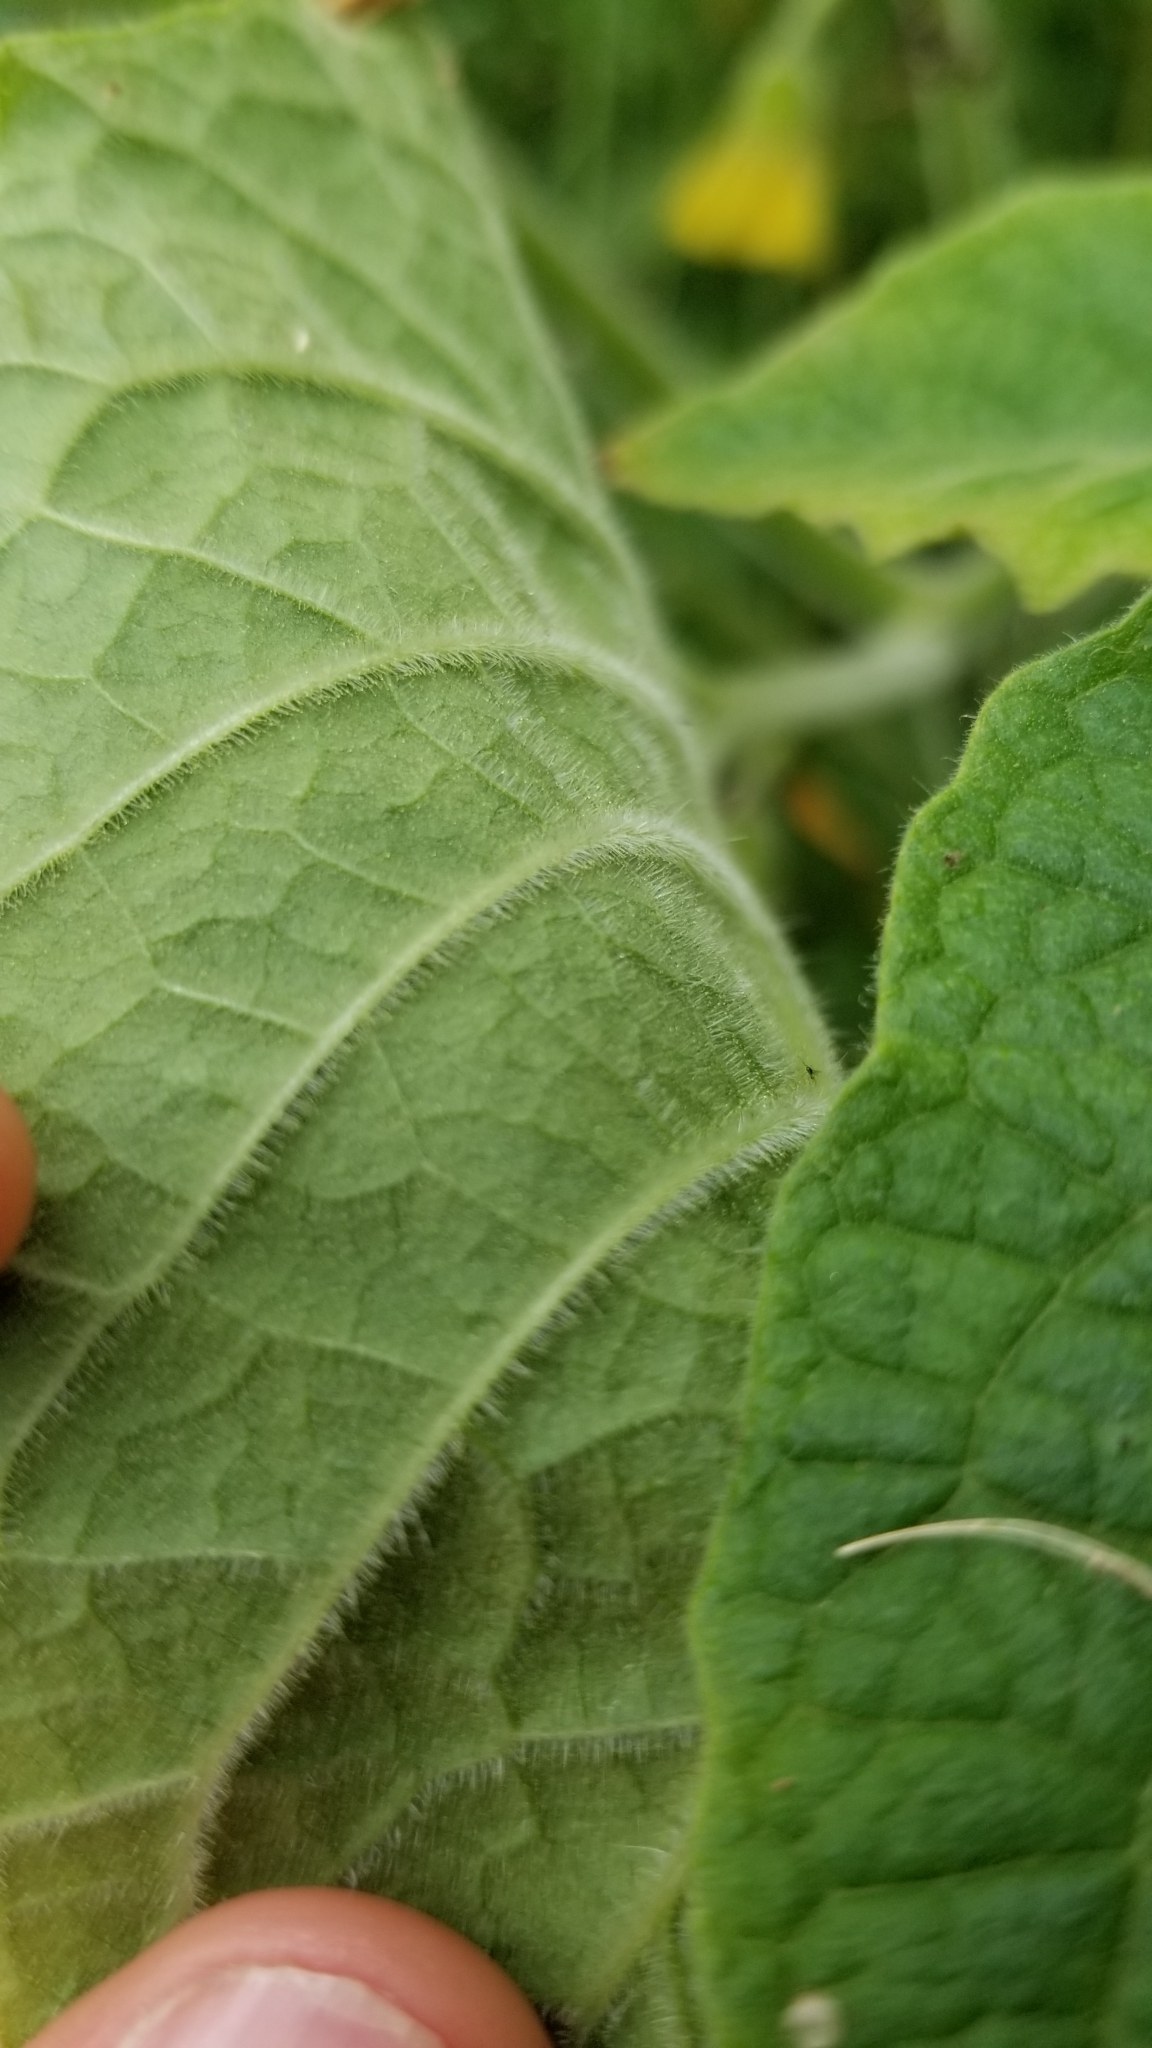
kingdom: Plantae
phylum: Tracheophyta
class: Magnoliopsida
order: Solanales
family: Solanaceae
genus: Physalis
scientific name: Physalis heterophylla
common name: Clammy ground-cherry
